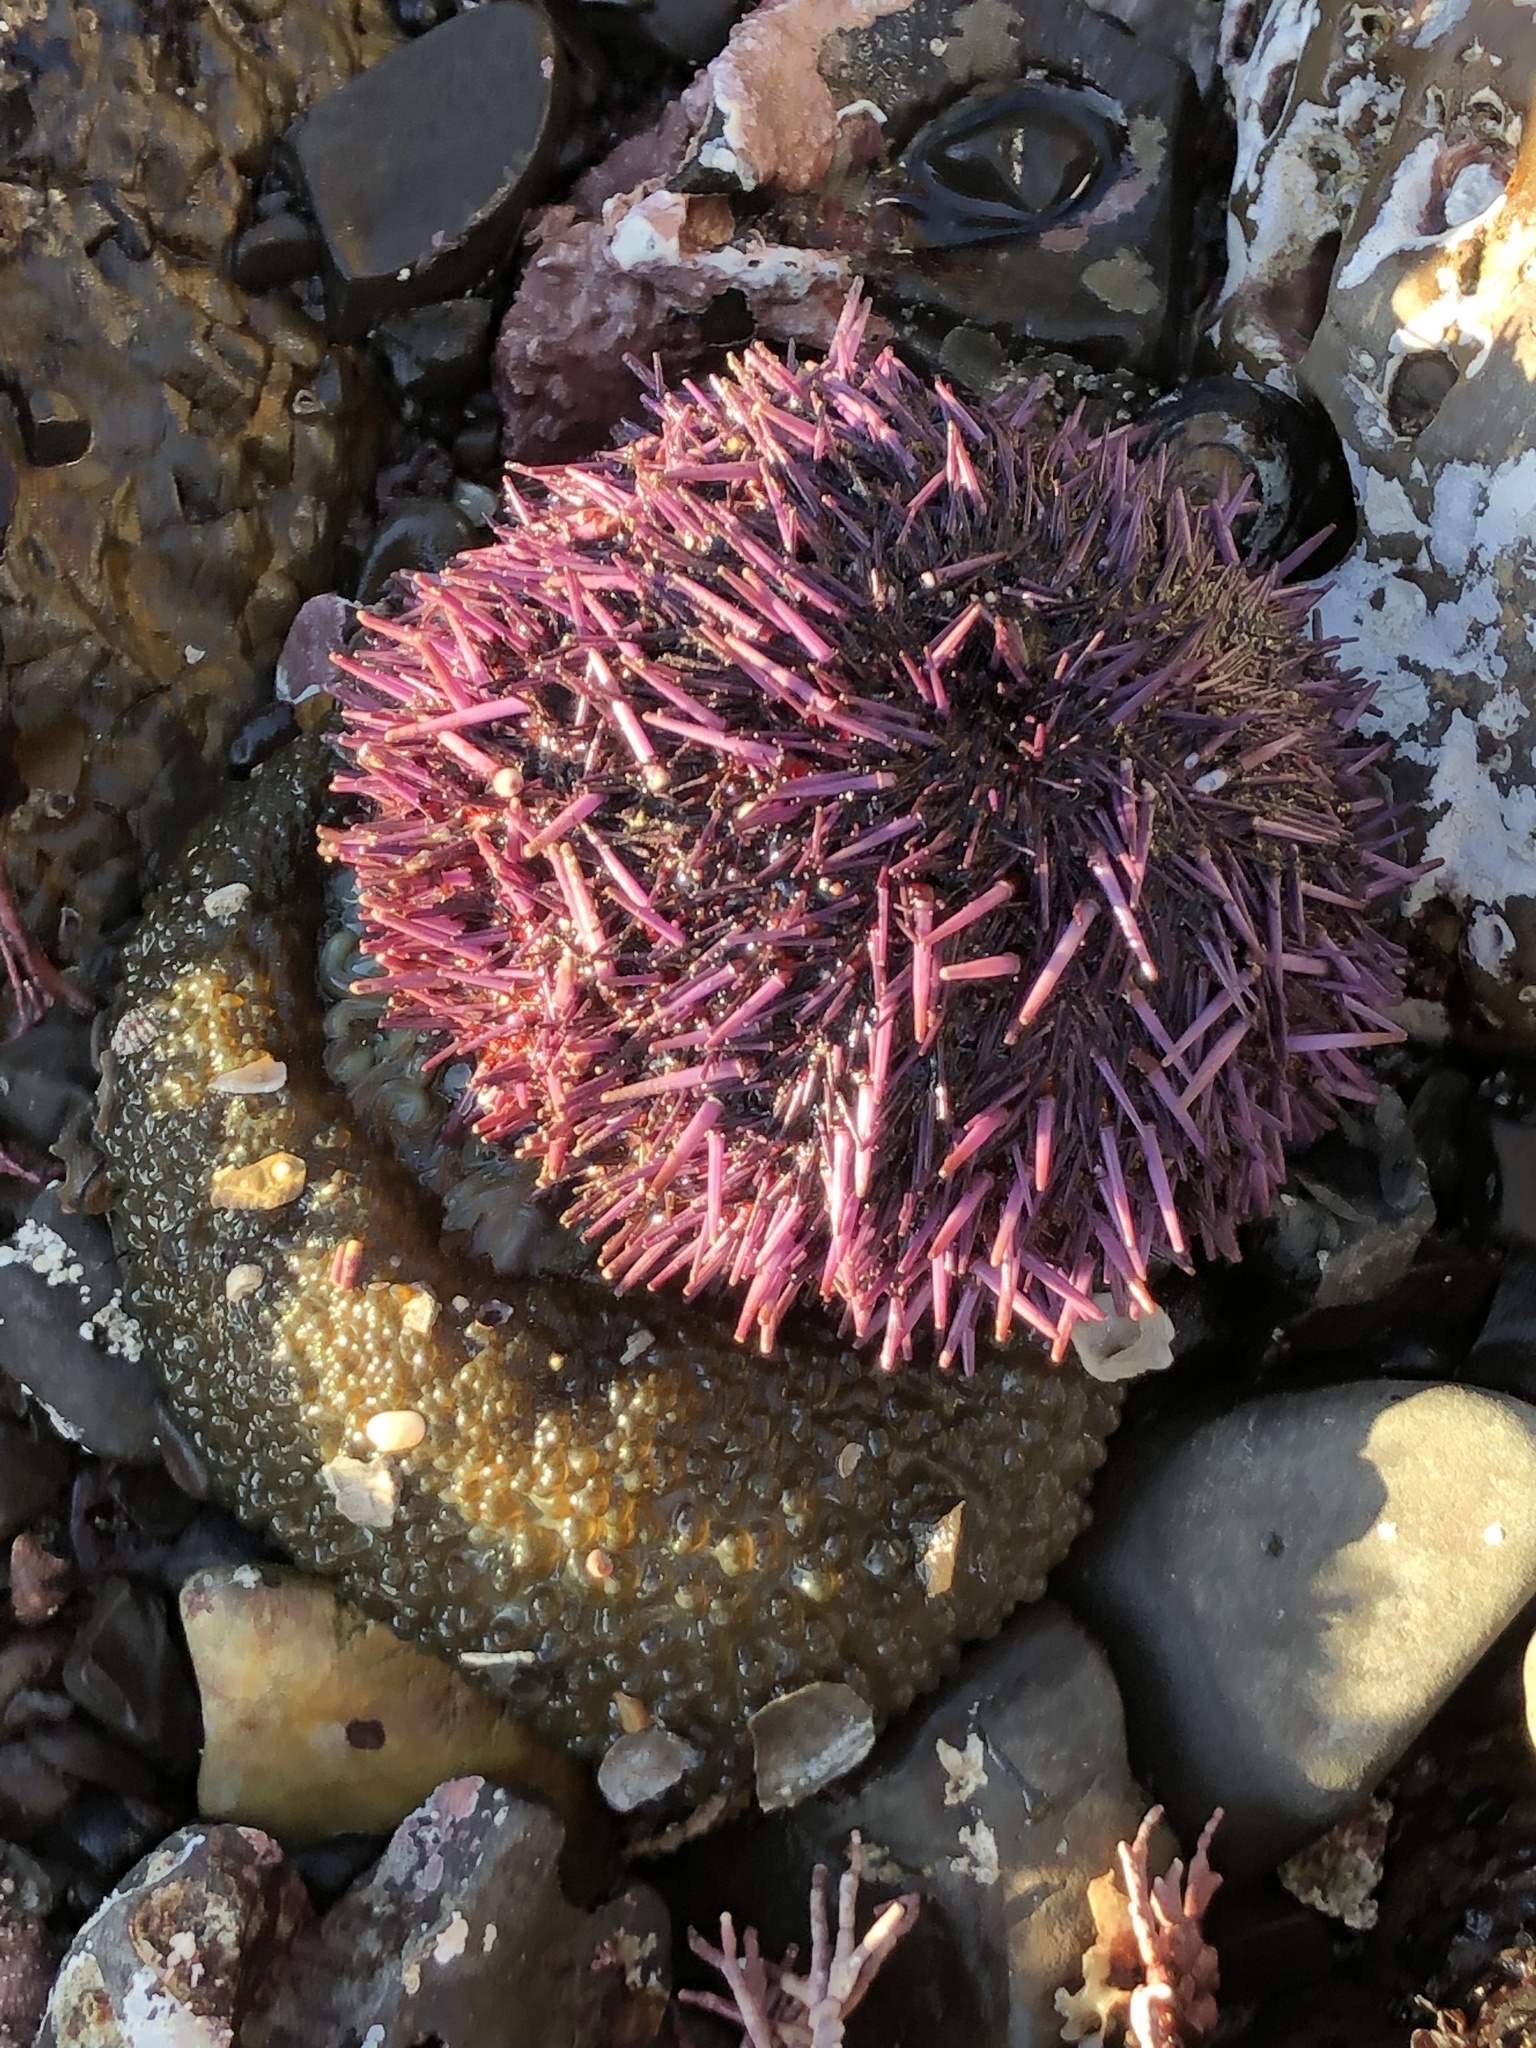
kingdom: Animalia
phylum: Echinodermata
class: Echinoidea
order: Camarodonta
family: Strongylocentrotidae
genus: Strongylocentrotus
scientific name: Strongylocentrotus purpuratus
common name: Purple sea urchin
